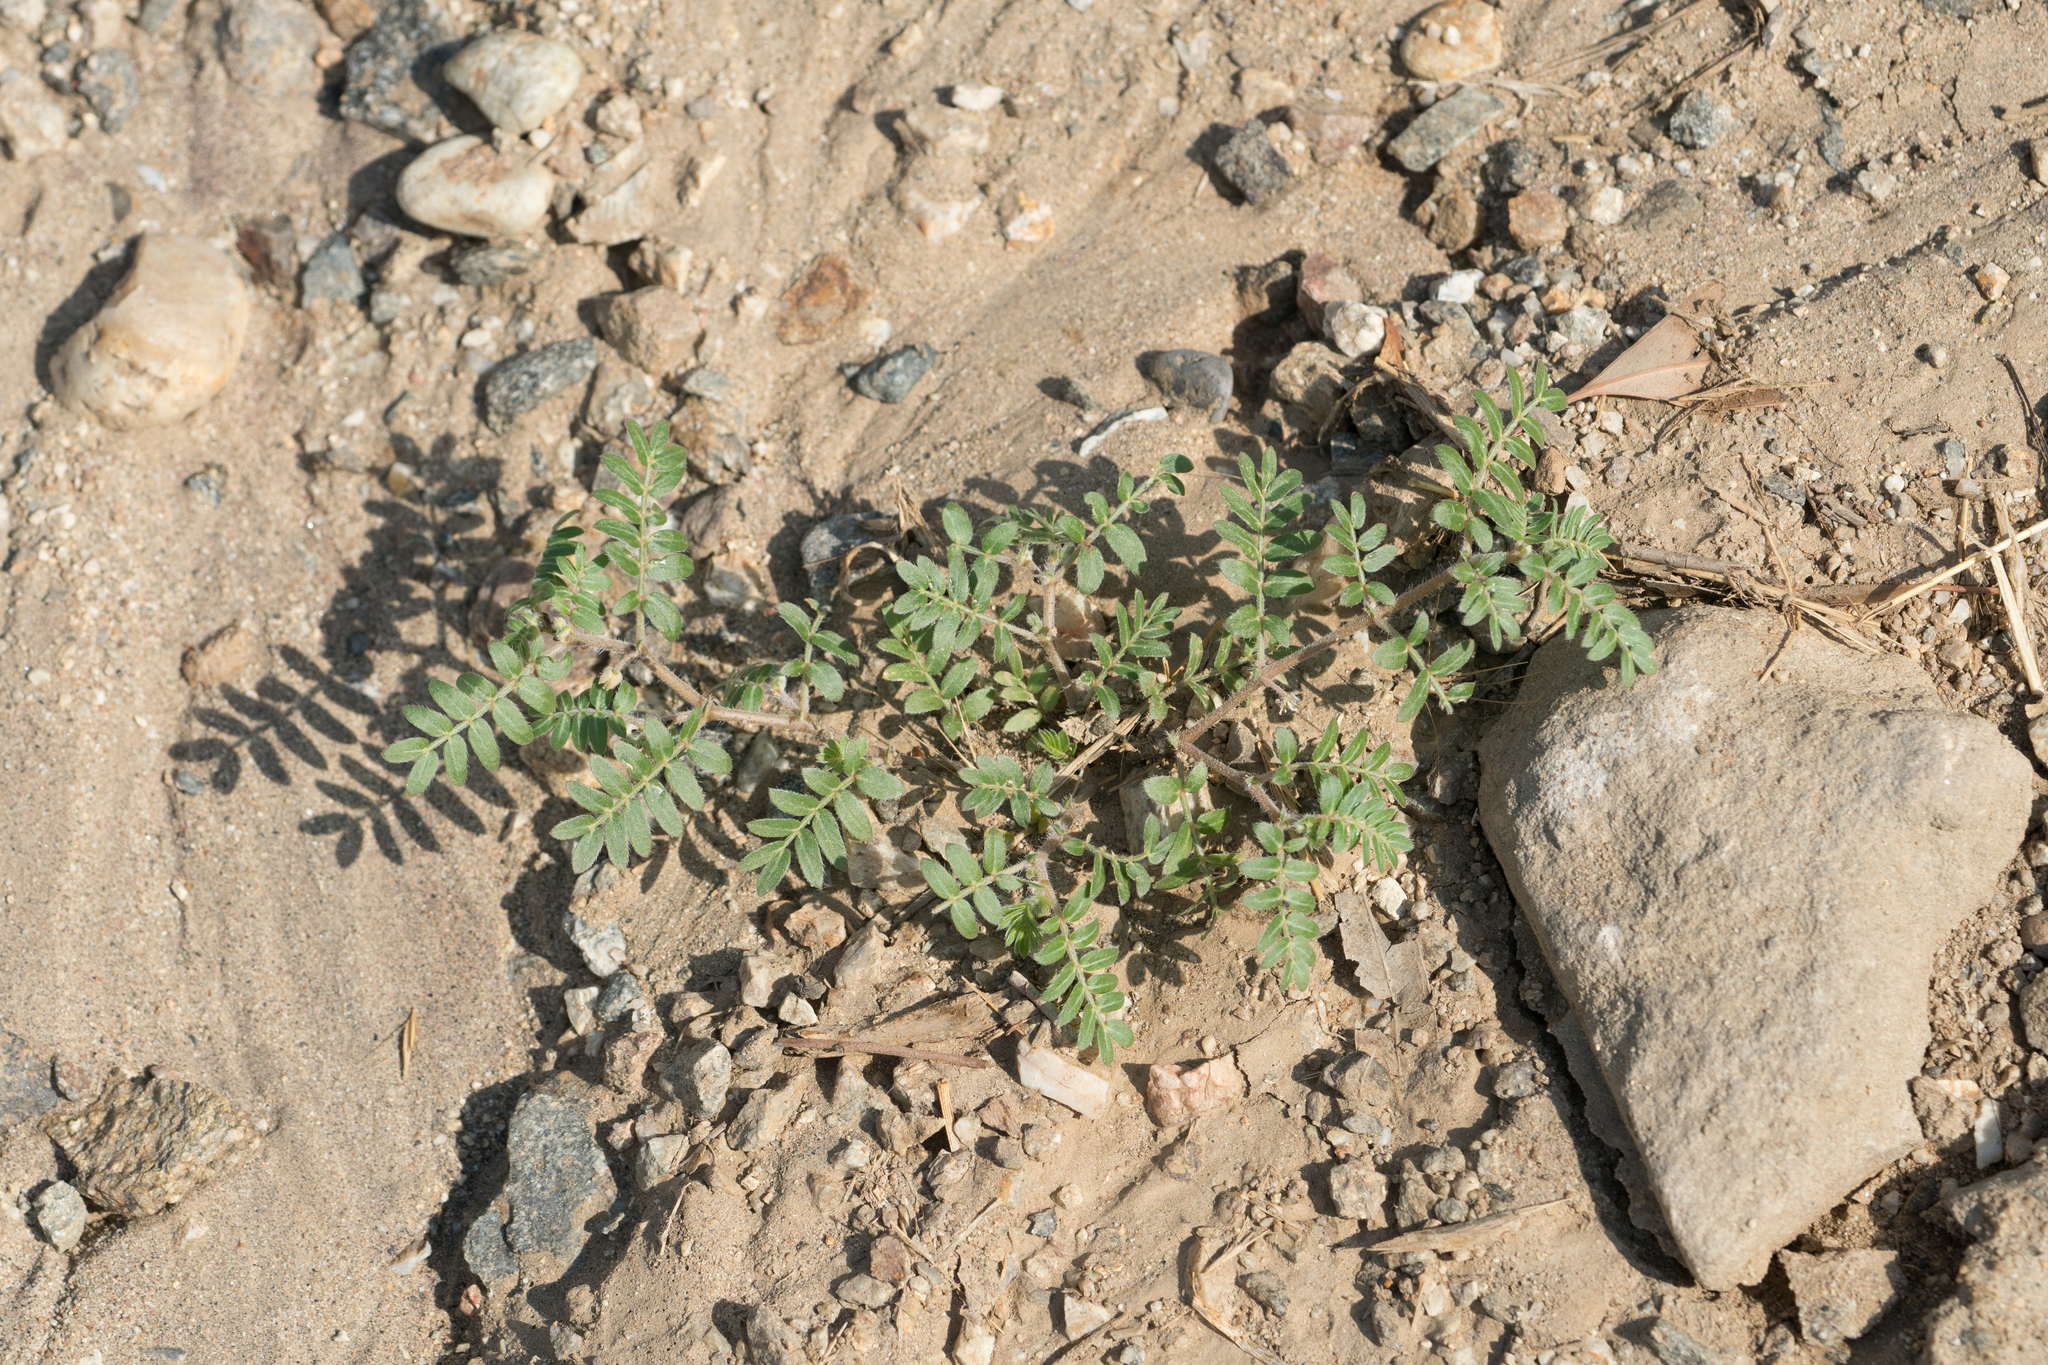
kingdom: Plantae
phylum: Tracheophyta
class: Magnoliopsida
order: Zygophyllales
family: Zygophyllaceae
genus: Tribulus
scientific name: Tribulus terrestris
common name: Puncturevine
